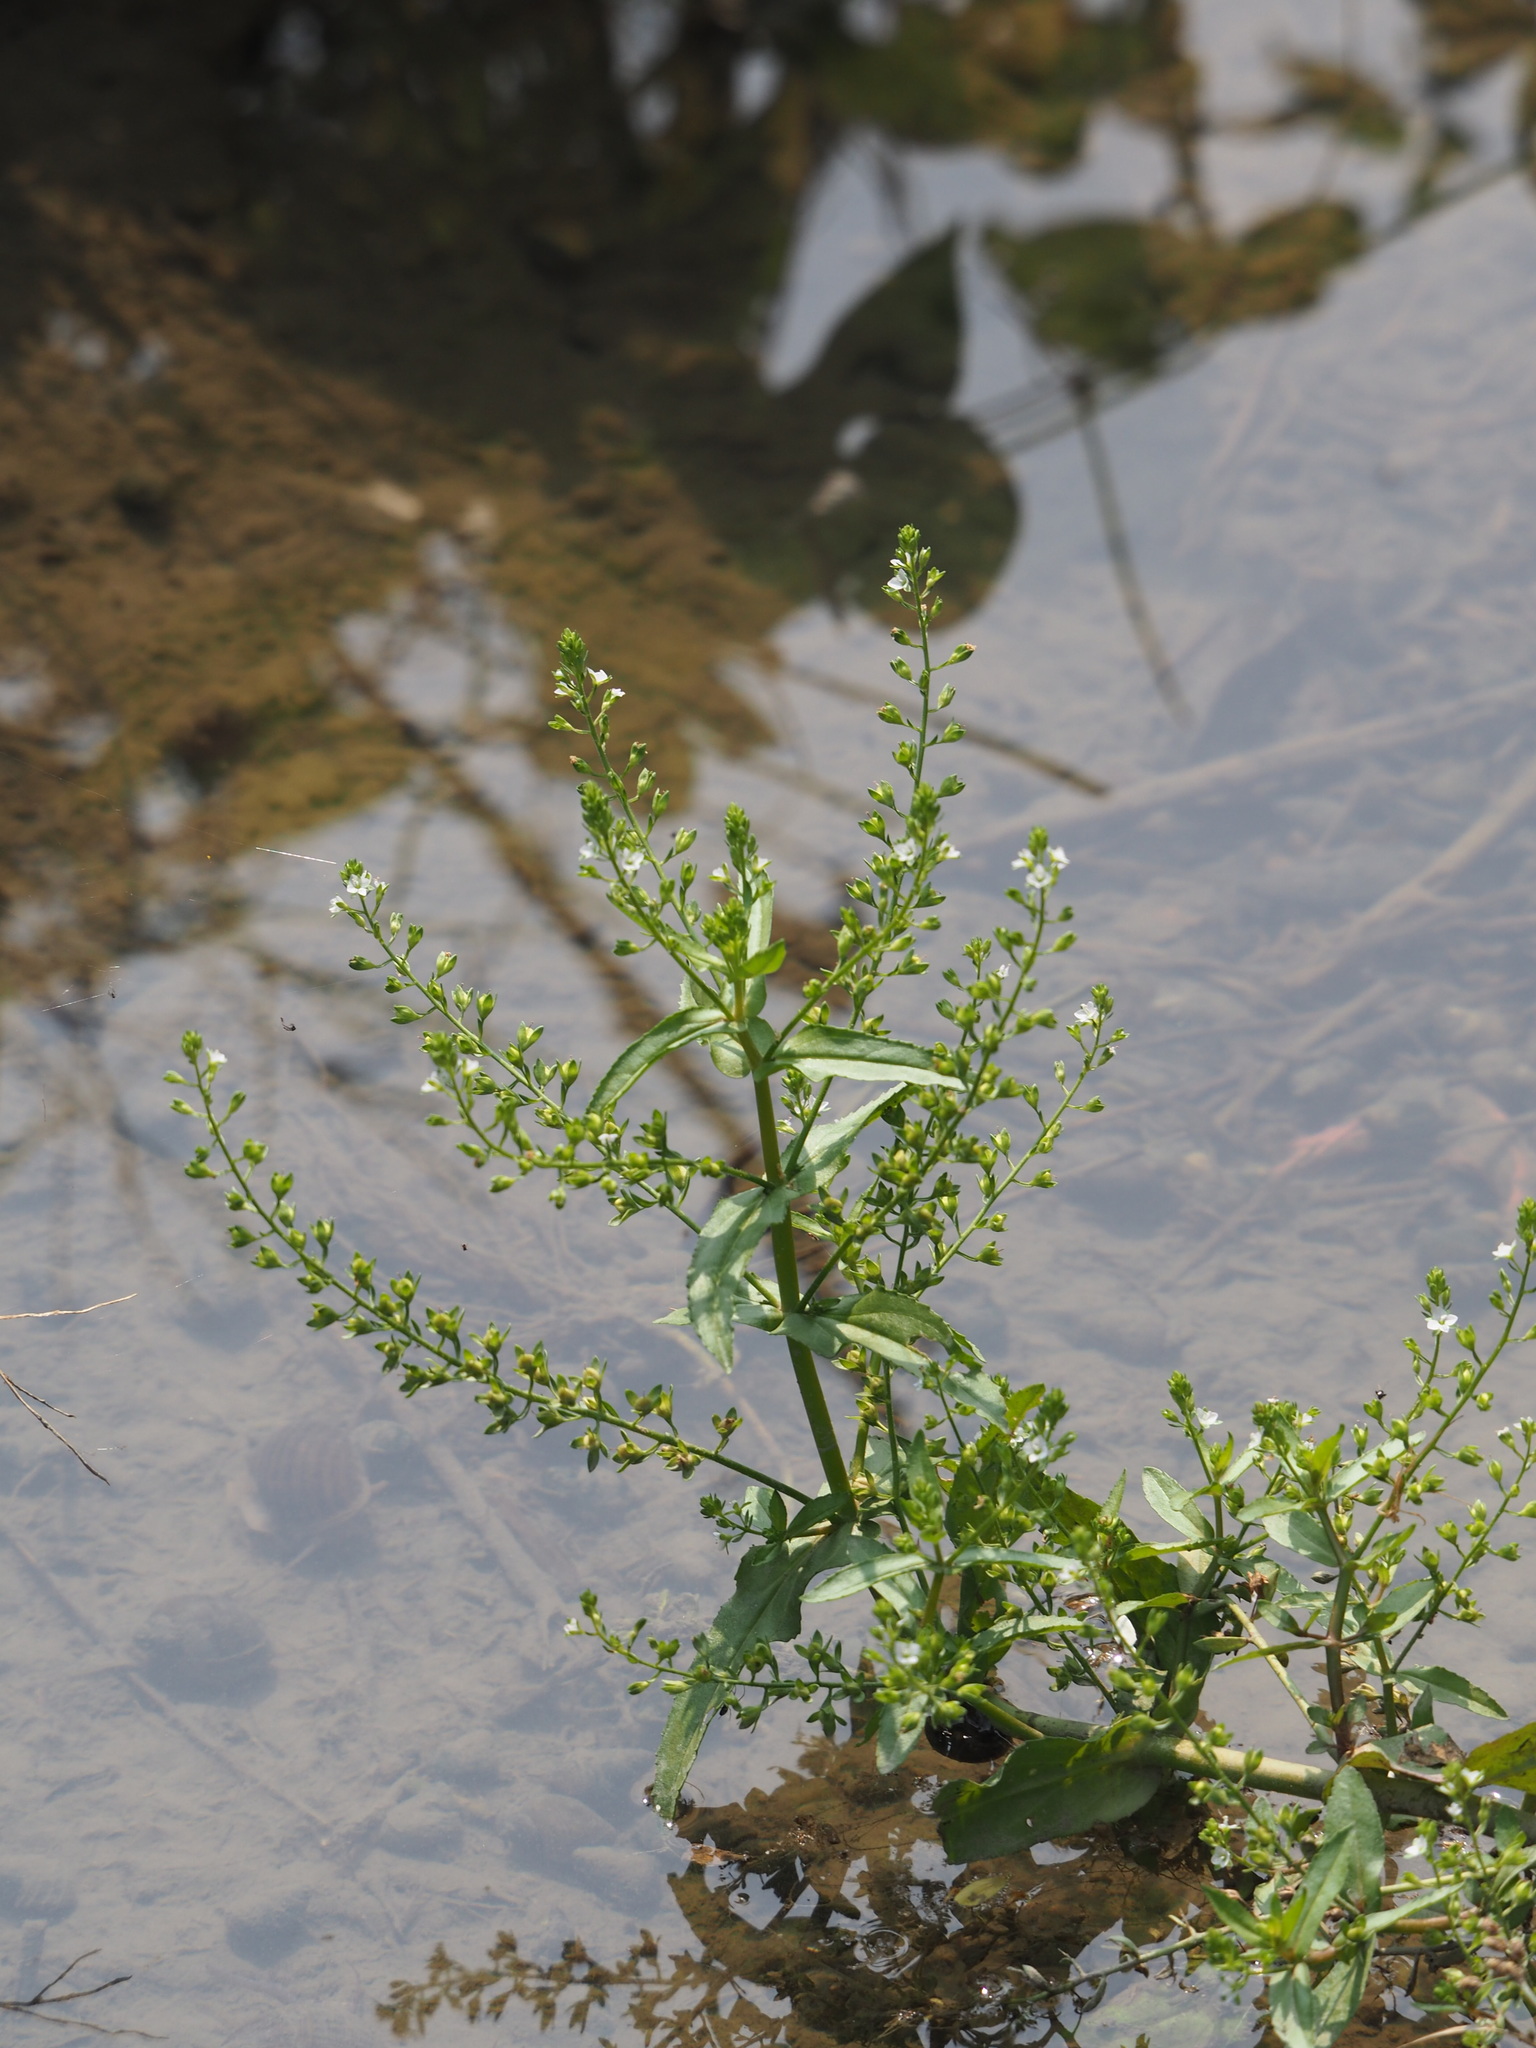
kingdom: Plantae
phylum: Tracheophyta
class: Magnoliopsida
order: Lamiales
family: Plantaginaceae
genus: Veronica
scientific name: Veronica undulata
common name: Undulate speedwell
